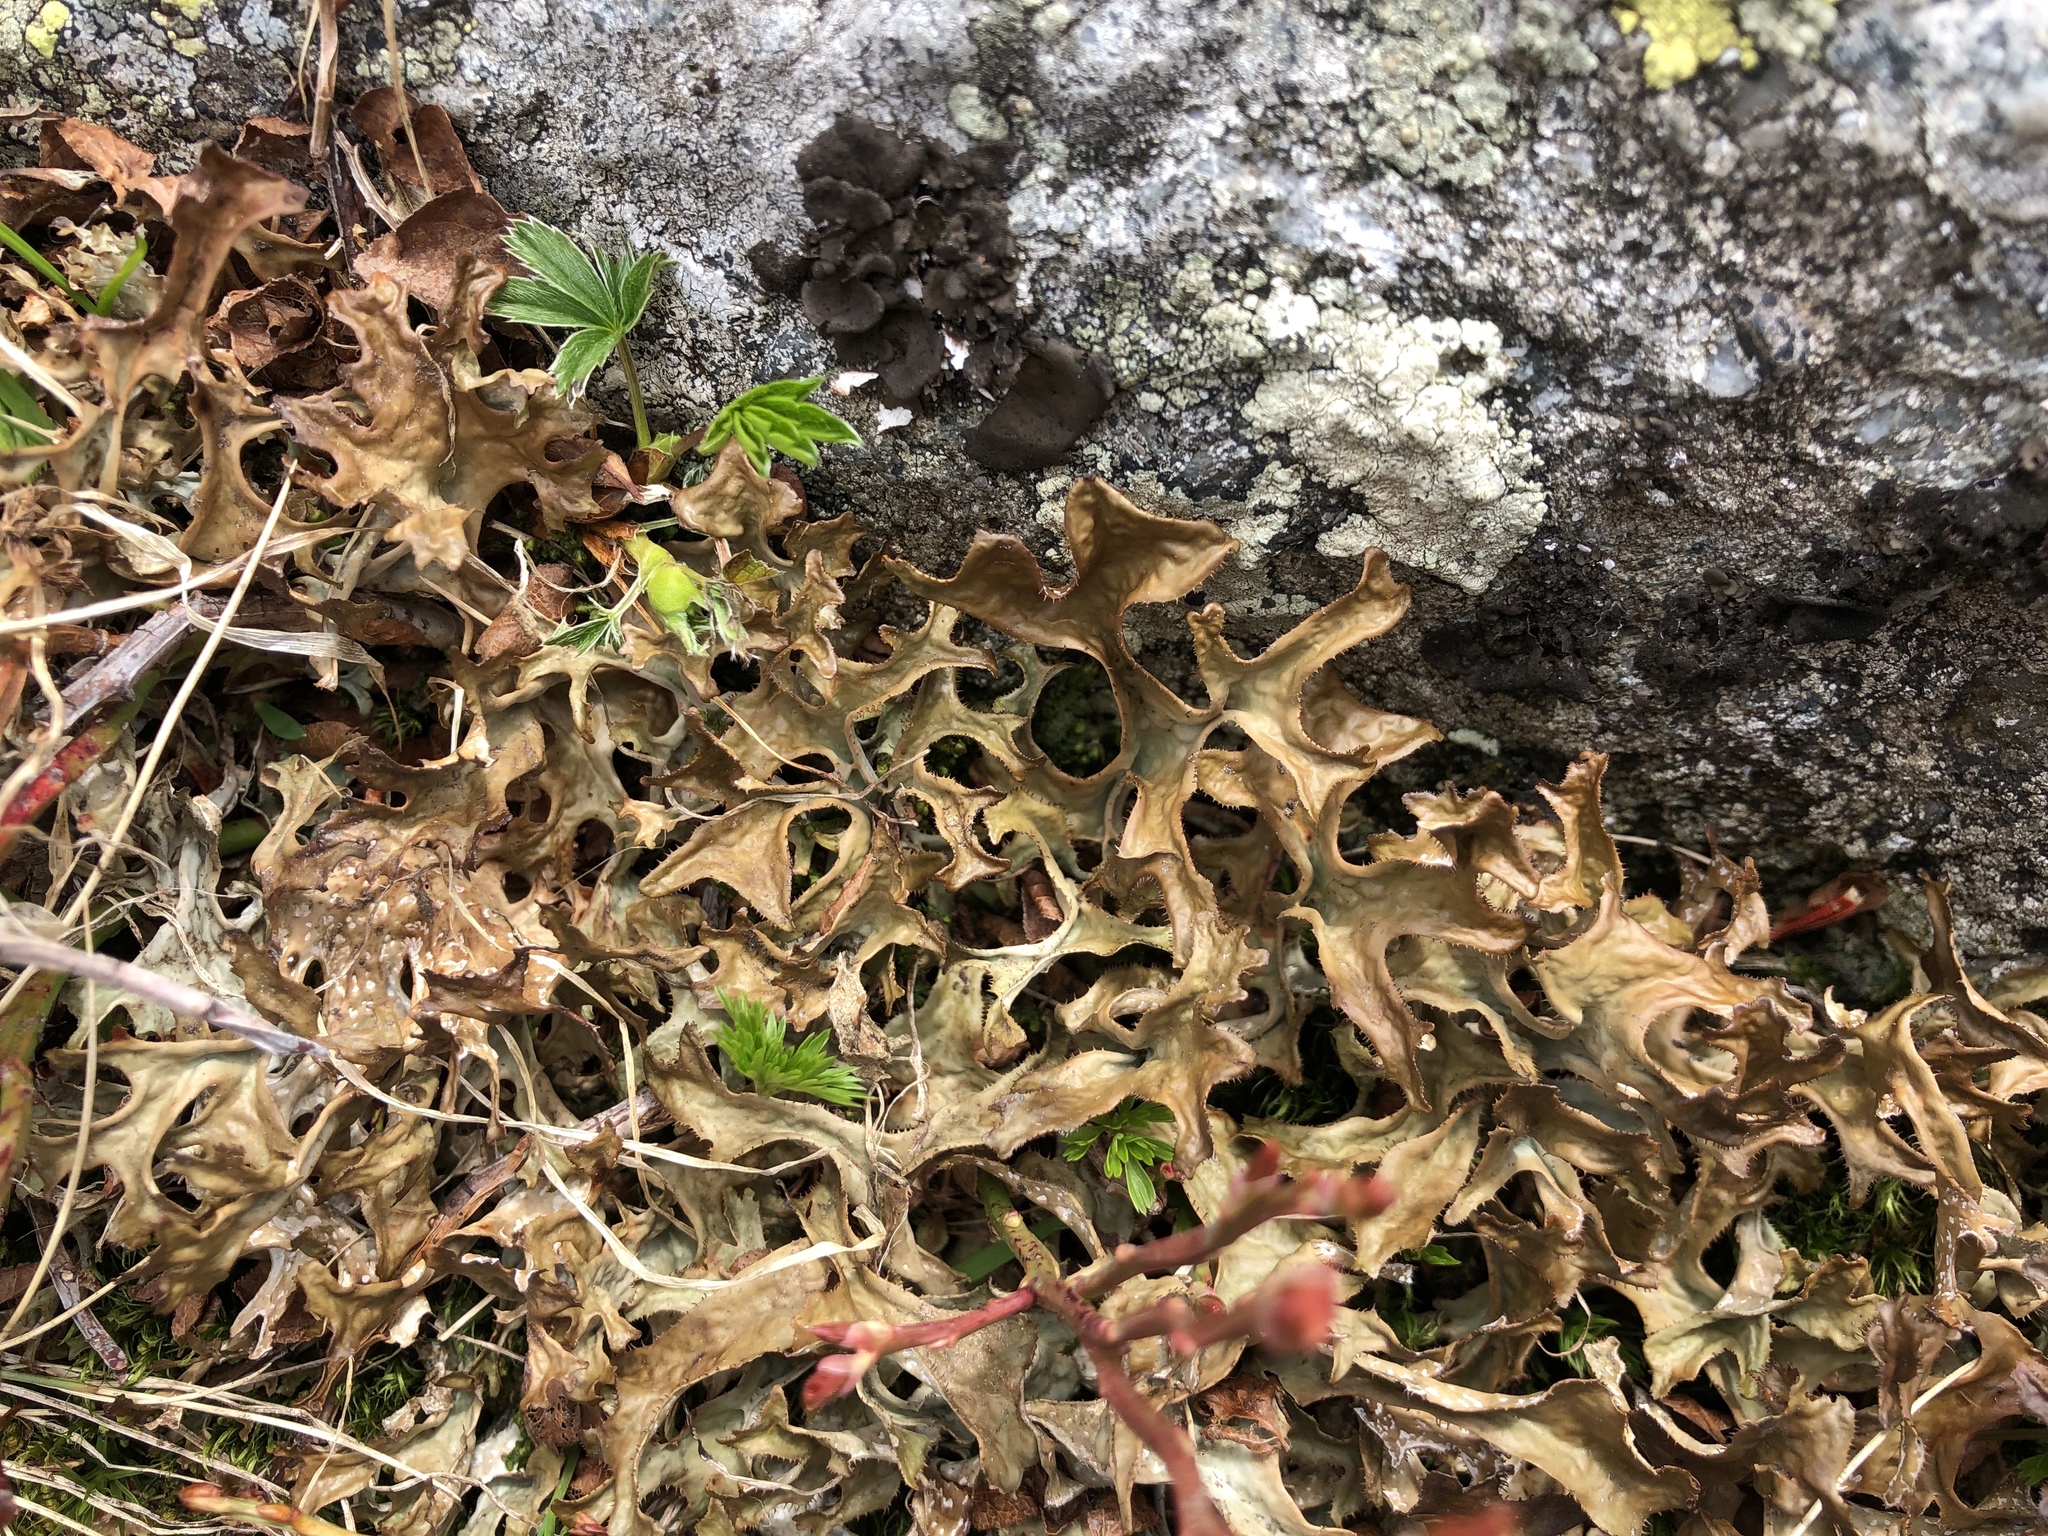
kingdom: Fungi
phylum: Ascomycota
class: Lecanoromycetes
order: Lecanorales
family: Parmeliaceae
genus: Cetraria
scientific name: Cetraria islandica
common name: Iceland lichen
